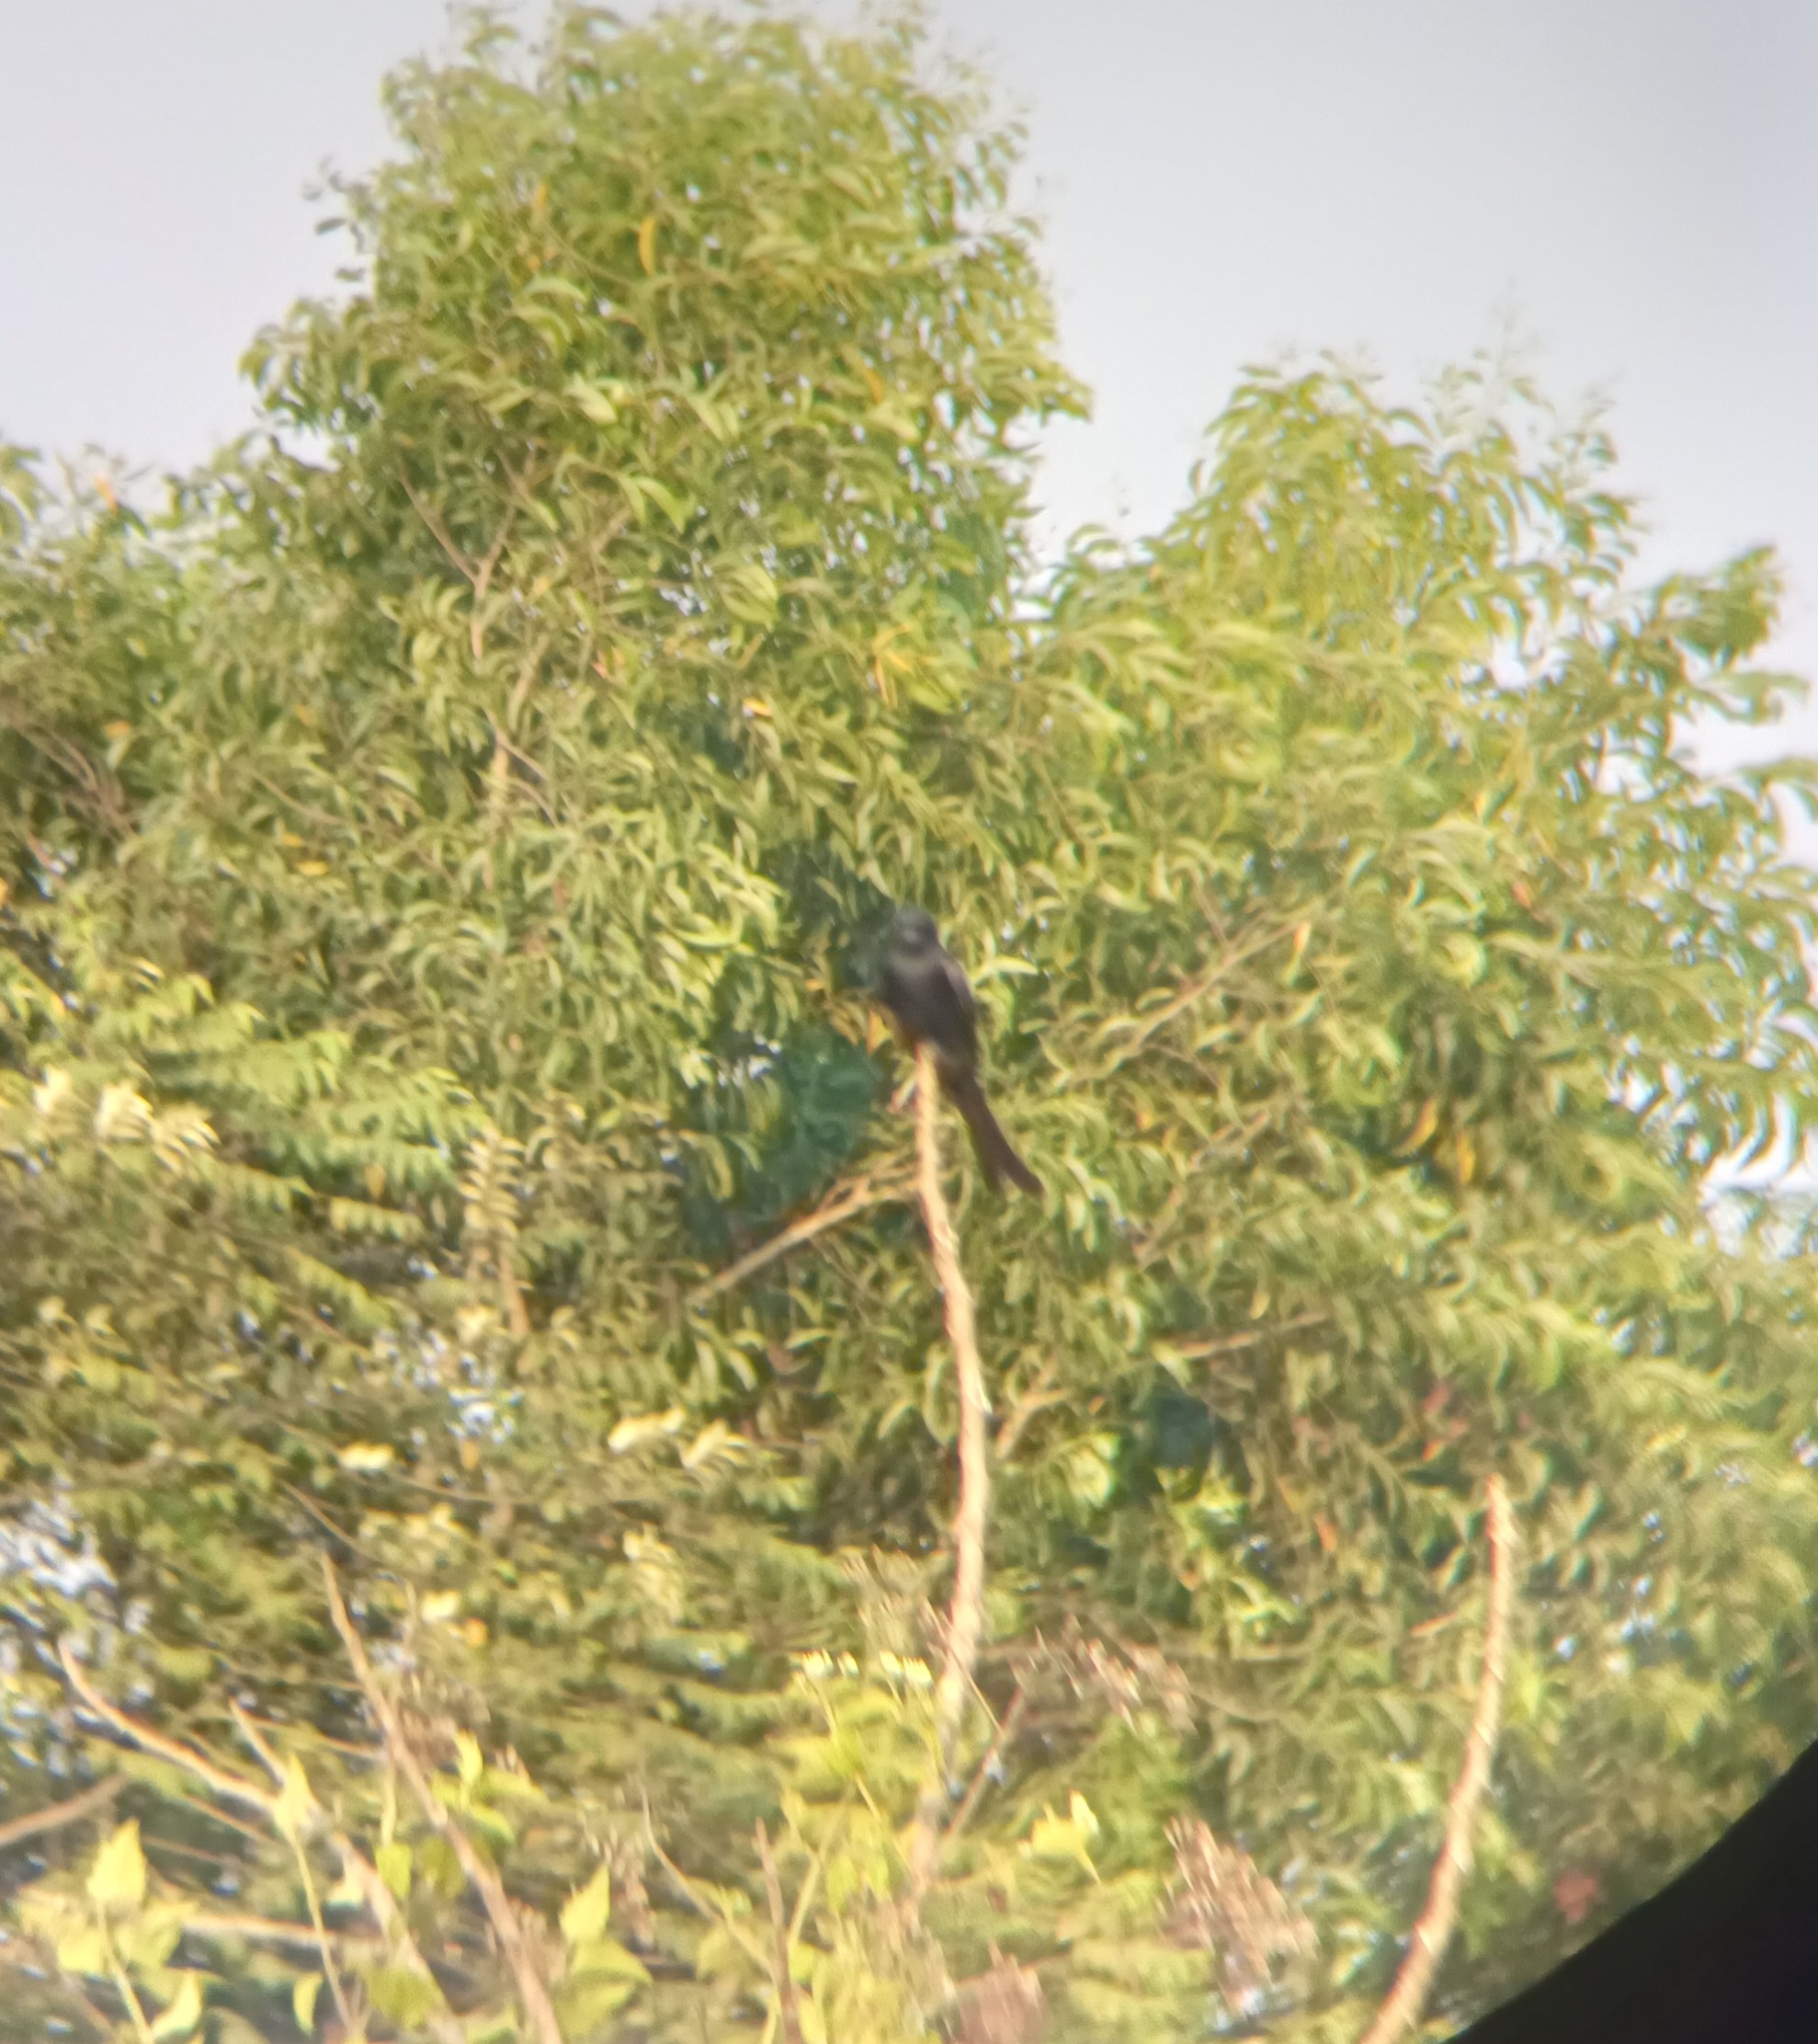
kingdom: Animalia
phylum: Chordata
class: Aves
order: Passeriformes
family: Dicruridae
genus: Dicrurus
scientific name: Dicrurus macrocercus
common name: Black drongo
